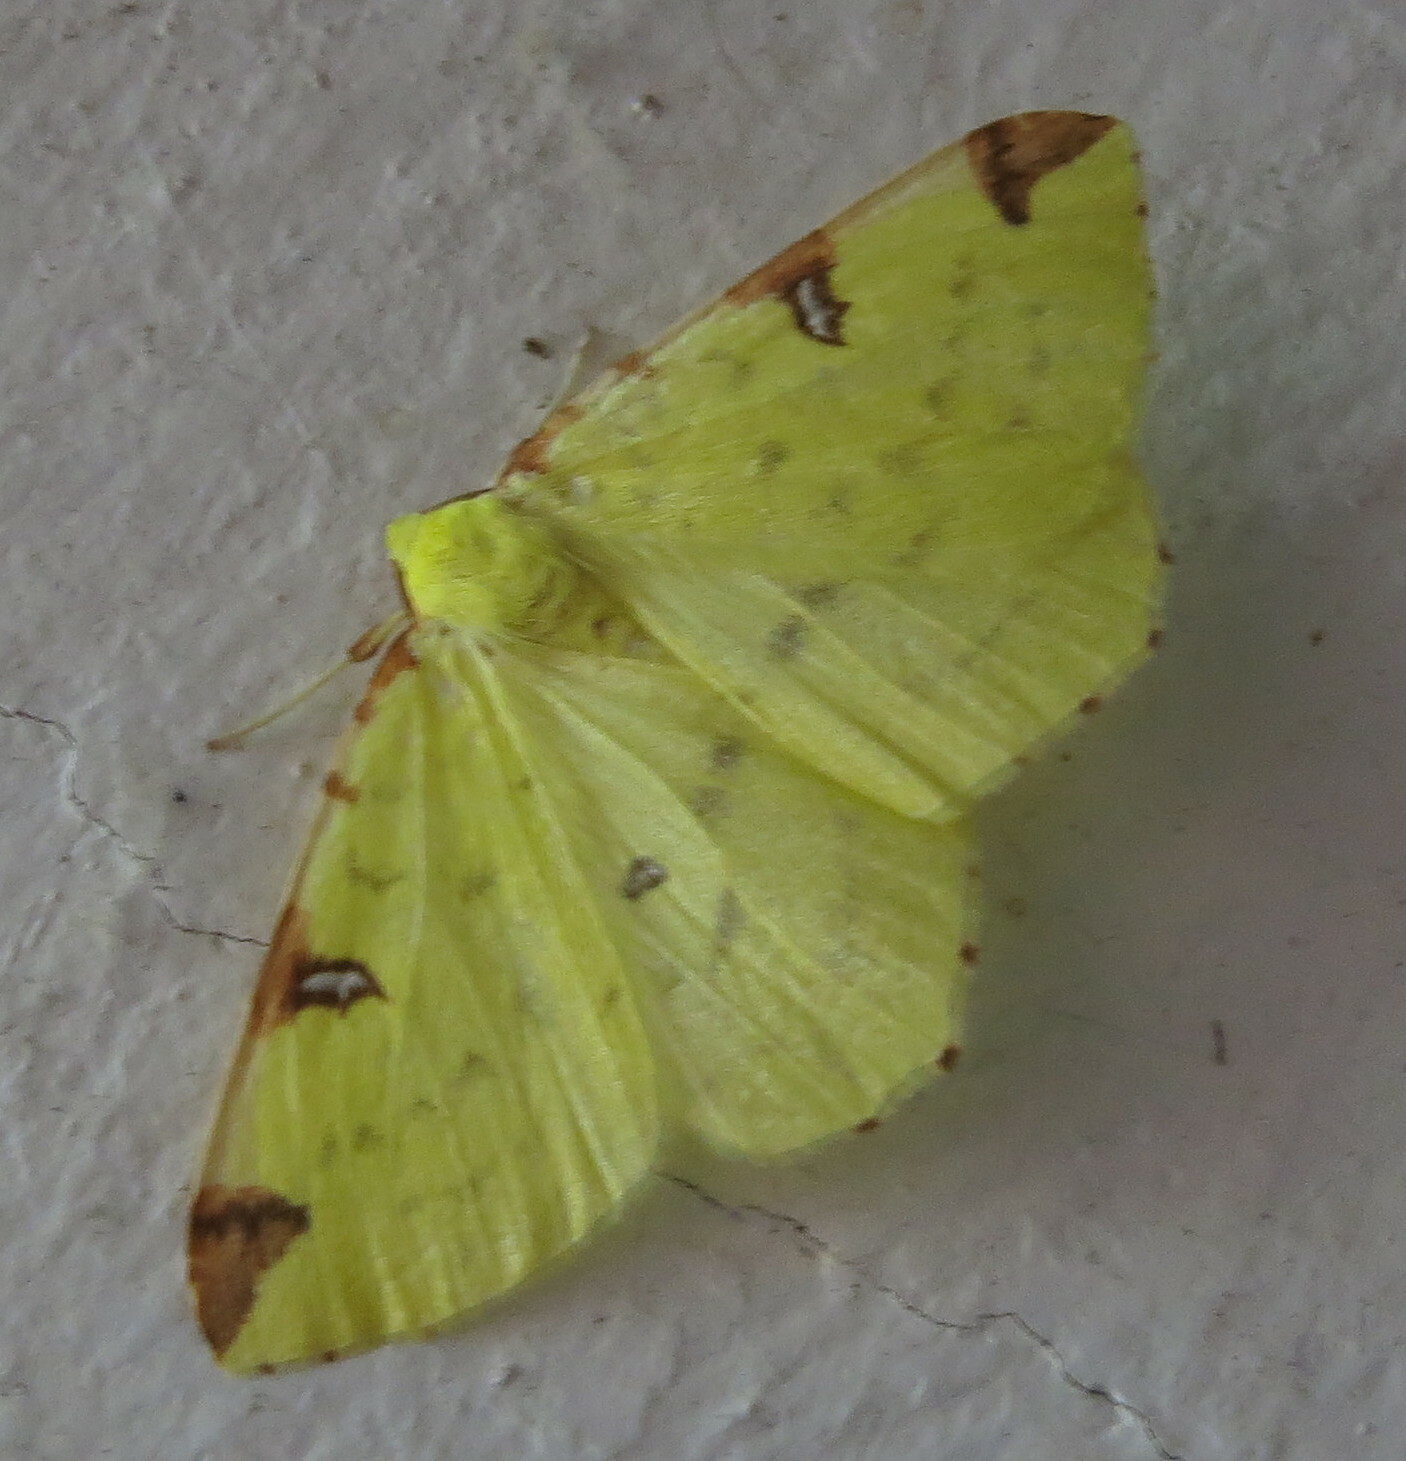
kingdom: Animalia
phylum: Arthropoda
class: Insecta
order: Lepidoptera
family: Geometridae
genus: Opisthograptis
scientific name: Opisthograptis luteolata
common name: Brimstone moth
